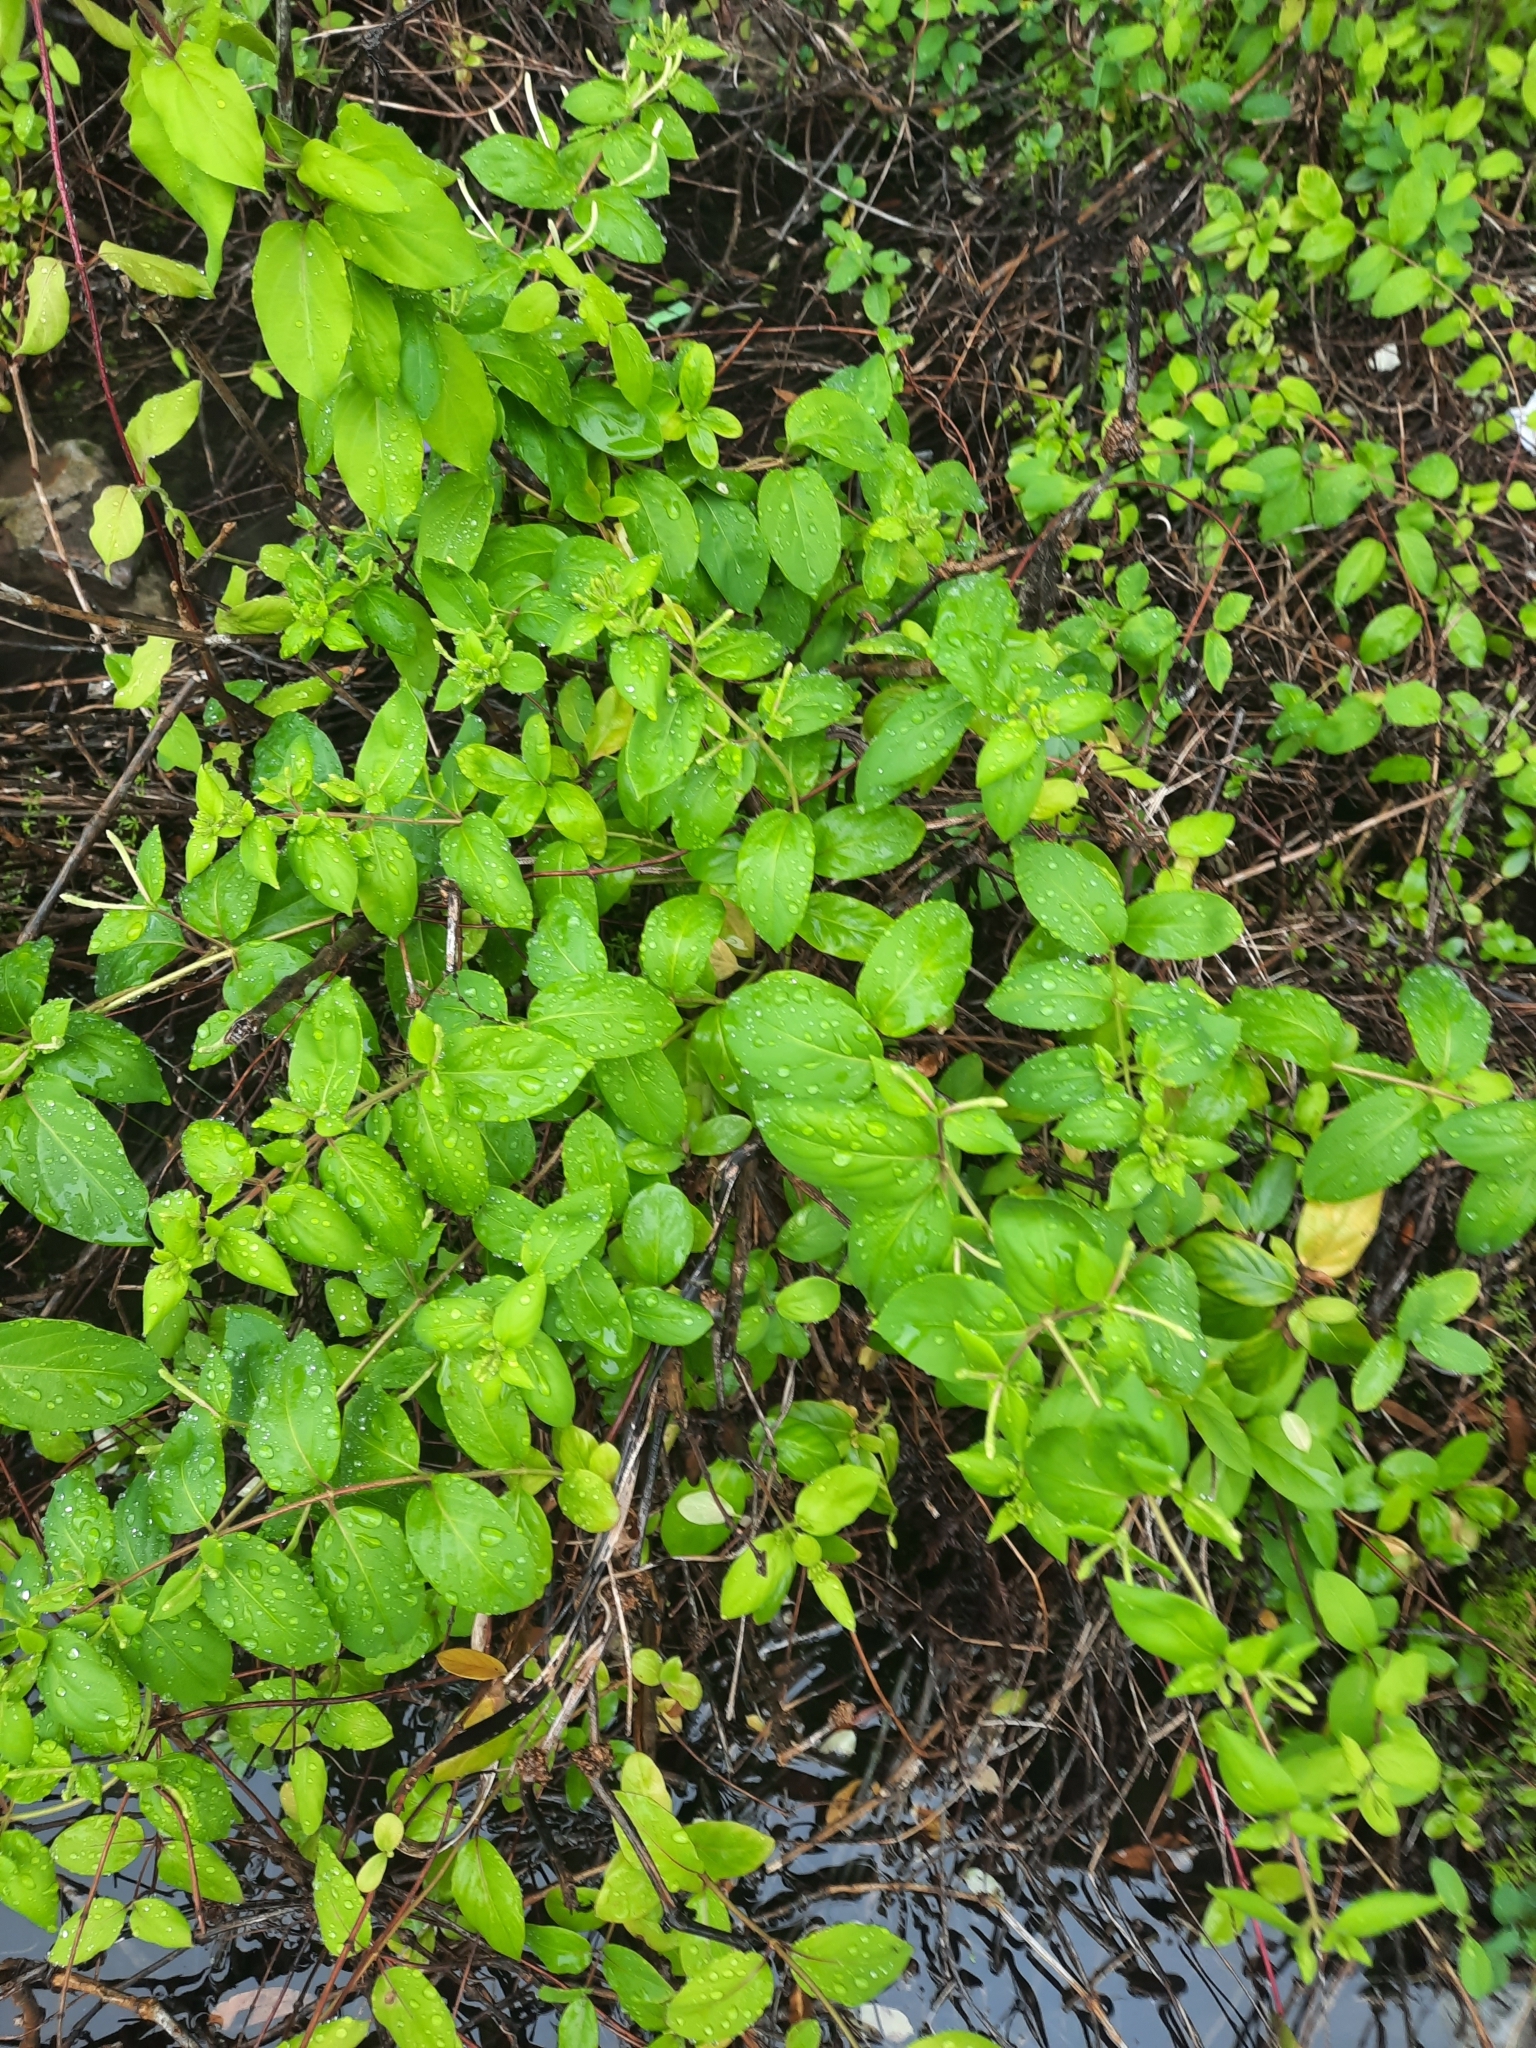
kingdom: Plantae
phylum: Tracheophyta
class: Magnoliopsida
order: Dipsacales
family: Caprifoliaceae
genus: Lonicera
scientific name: Lonicera japonica
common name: Japanese honeysuckle
